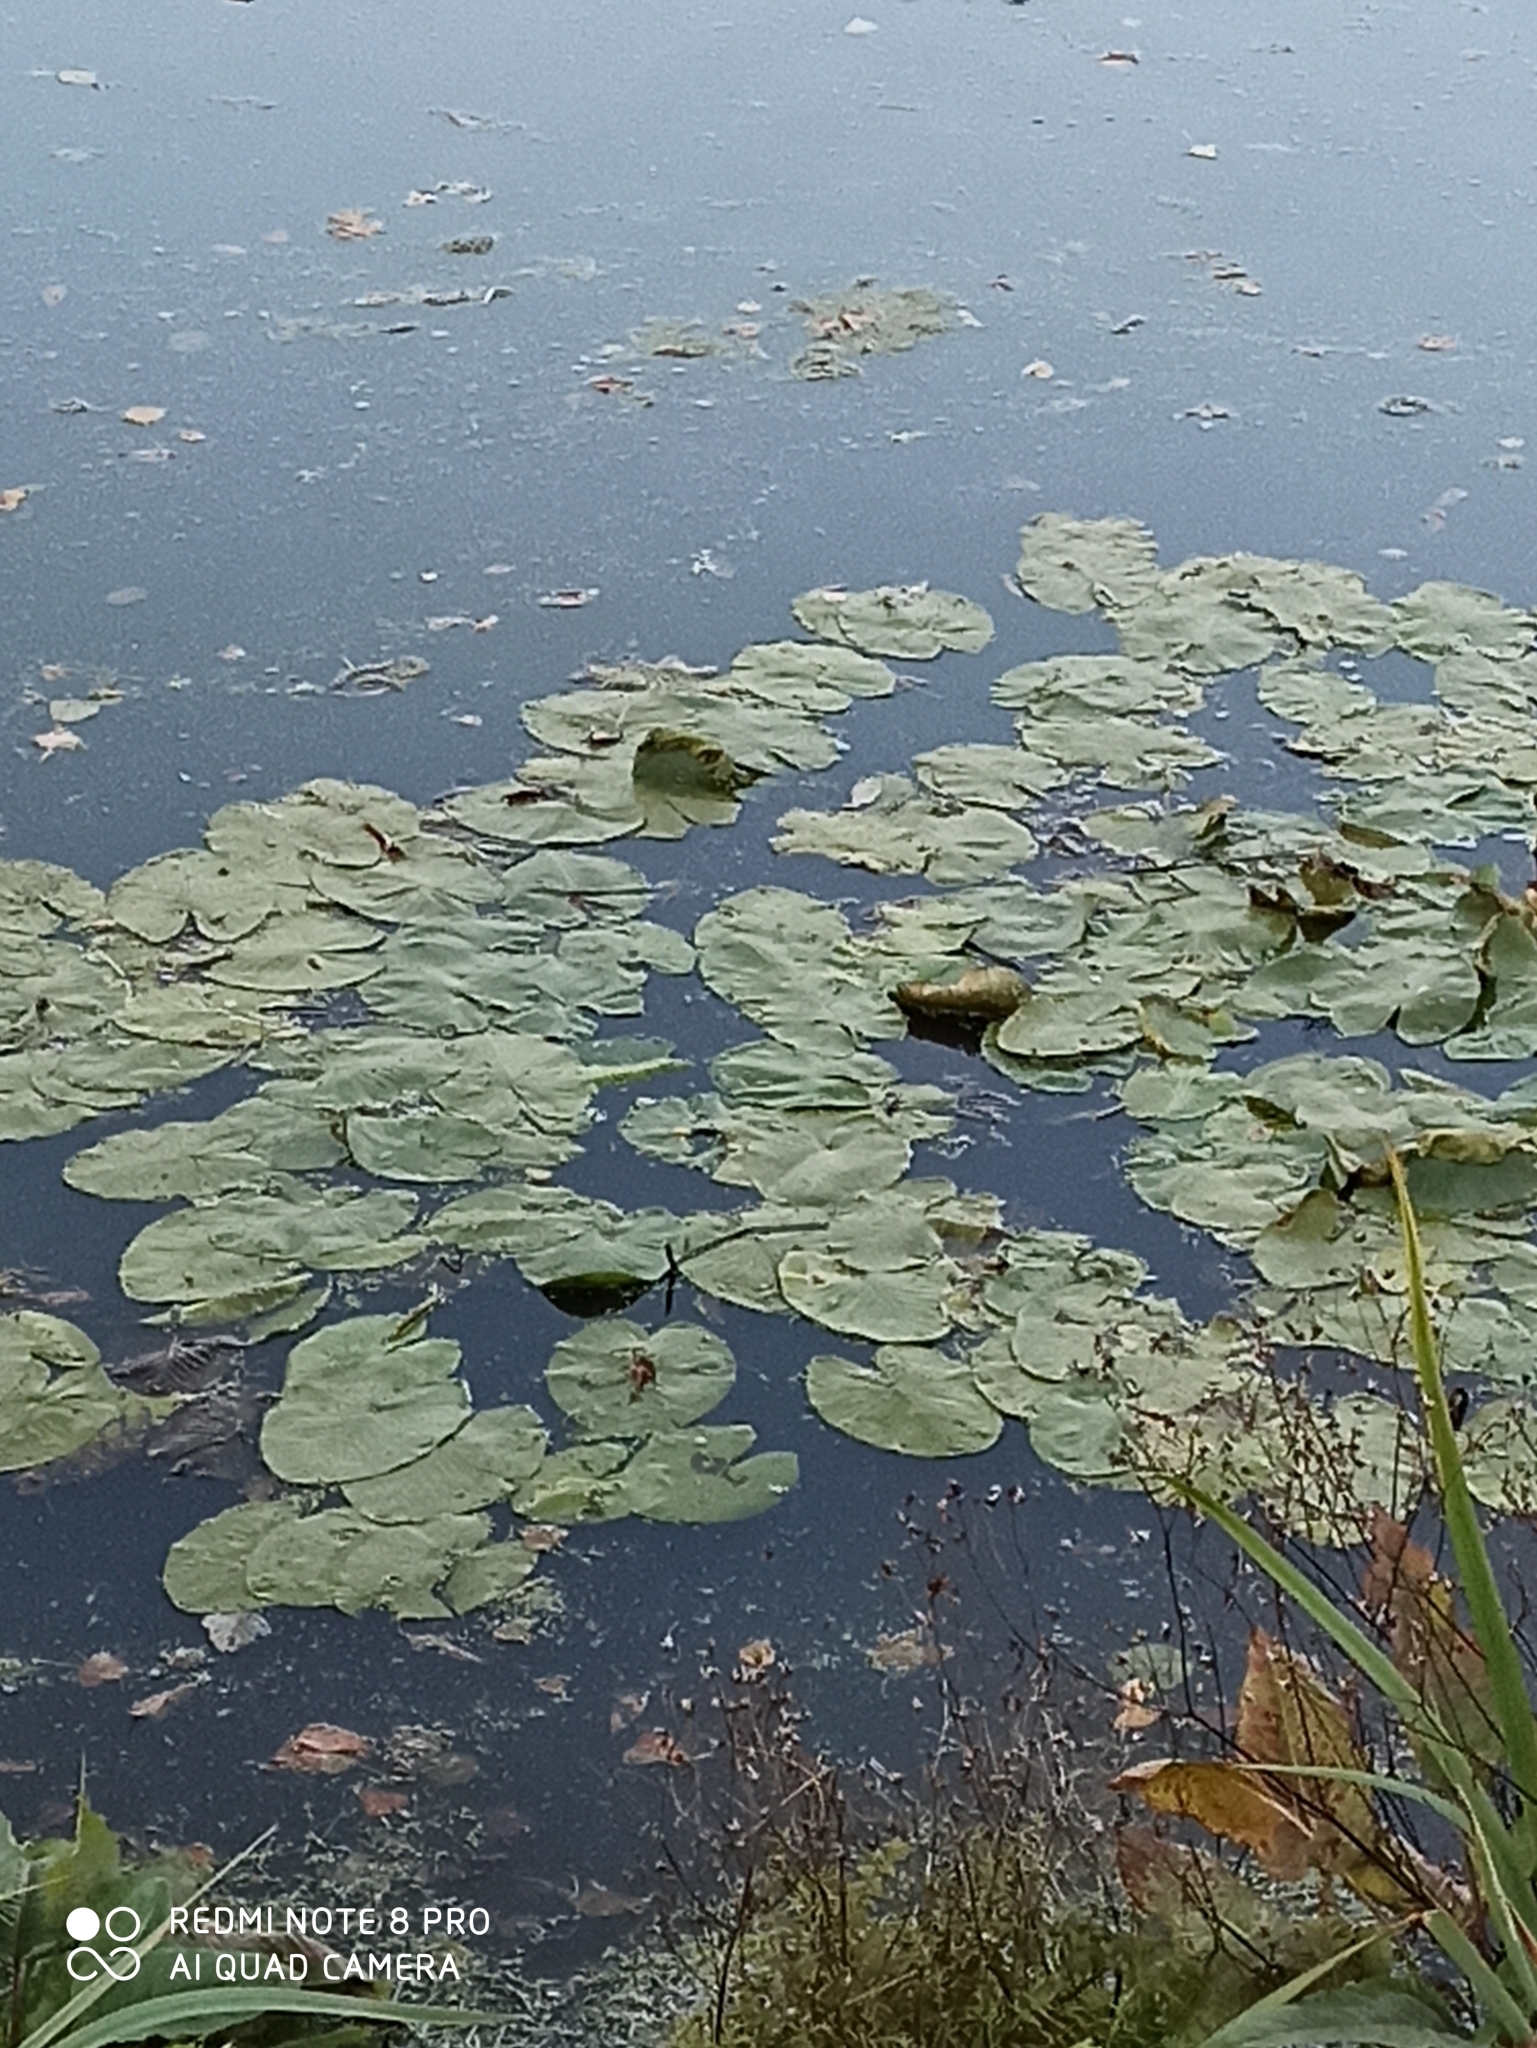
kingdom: Plantae
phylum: Tracheophyta
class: Magnoliopsida
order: Nymphaeales
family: Nymphaeaceae
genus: Nuphar
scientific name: Nuphar lutea
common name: Yellow water-lily
